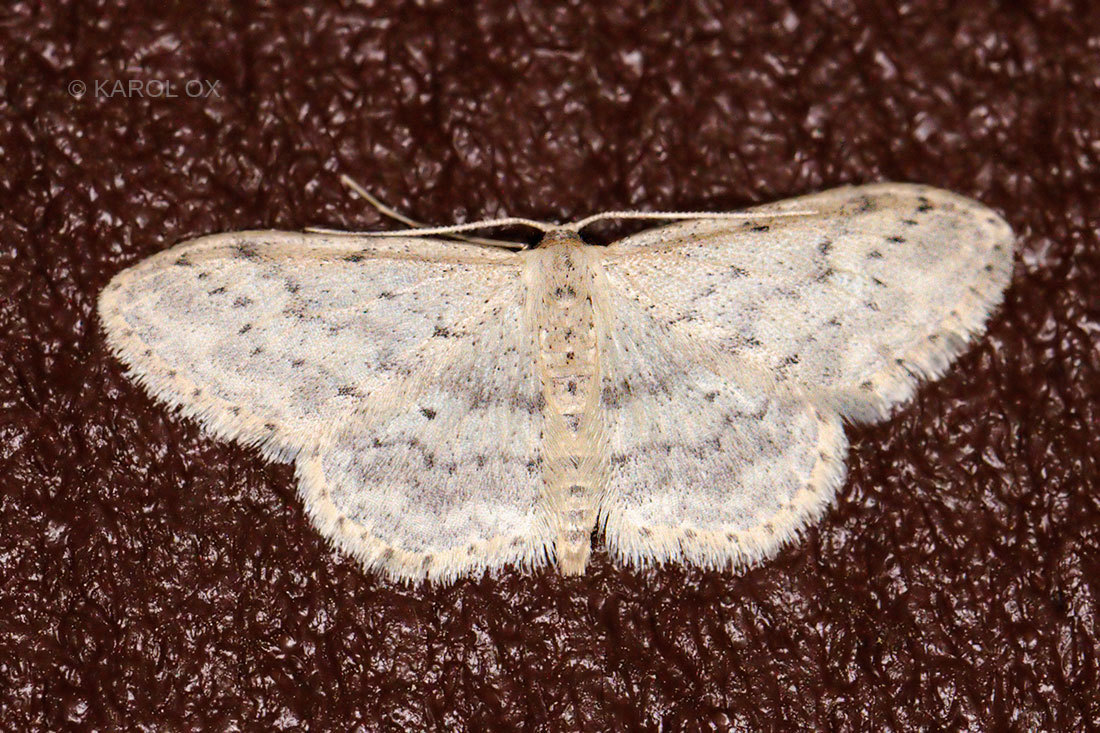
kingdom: Animalia
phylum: Arthropoda
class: Insecta
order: Lepidoptera
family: Geometridae
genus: Idaea
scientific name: Idaea seriata
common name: Small dusty wave
